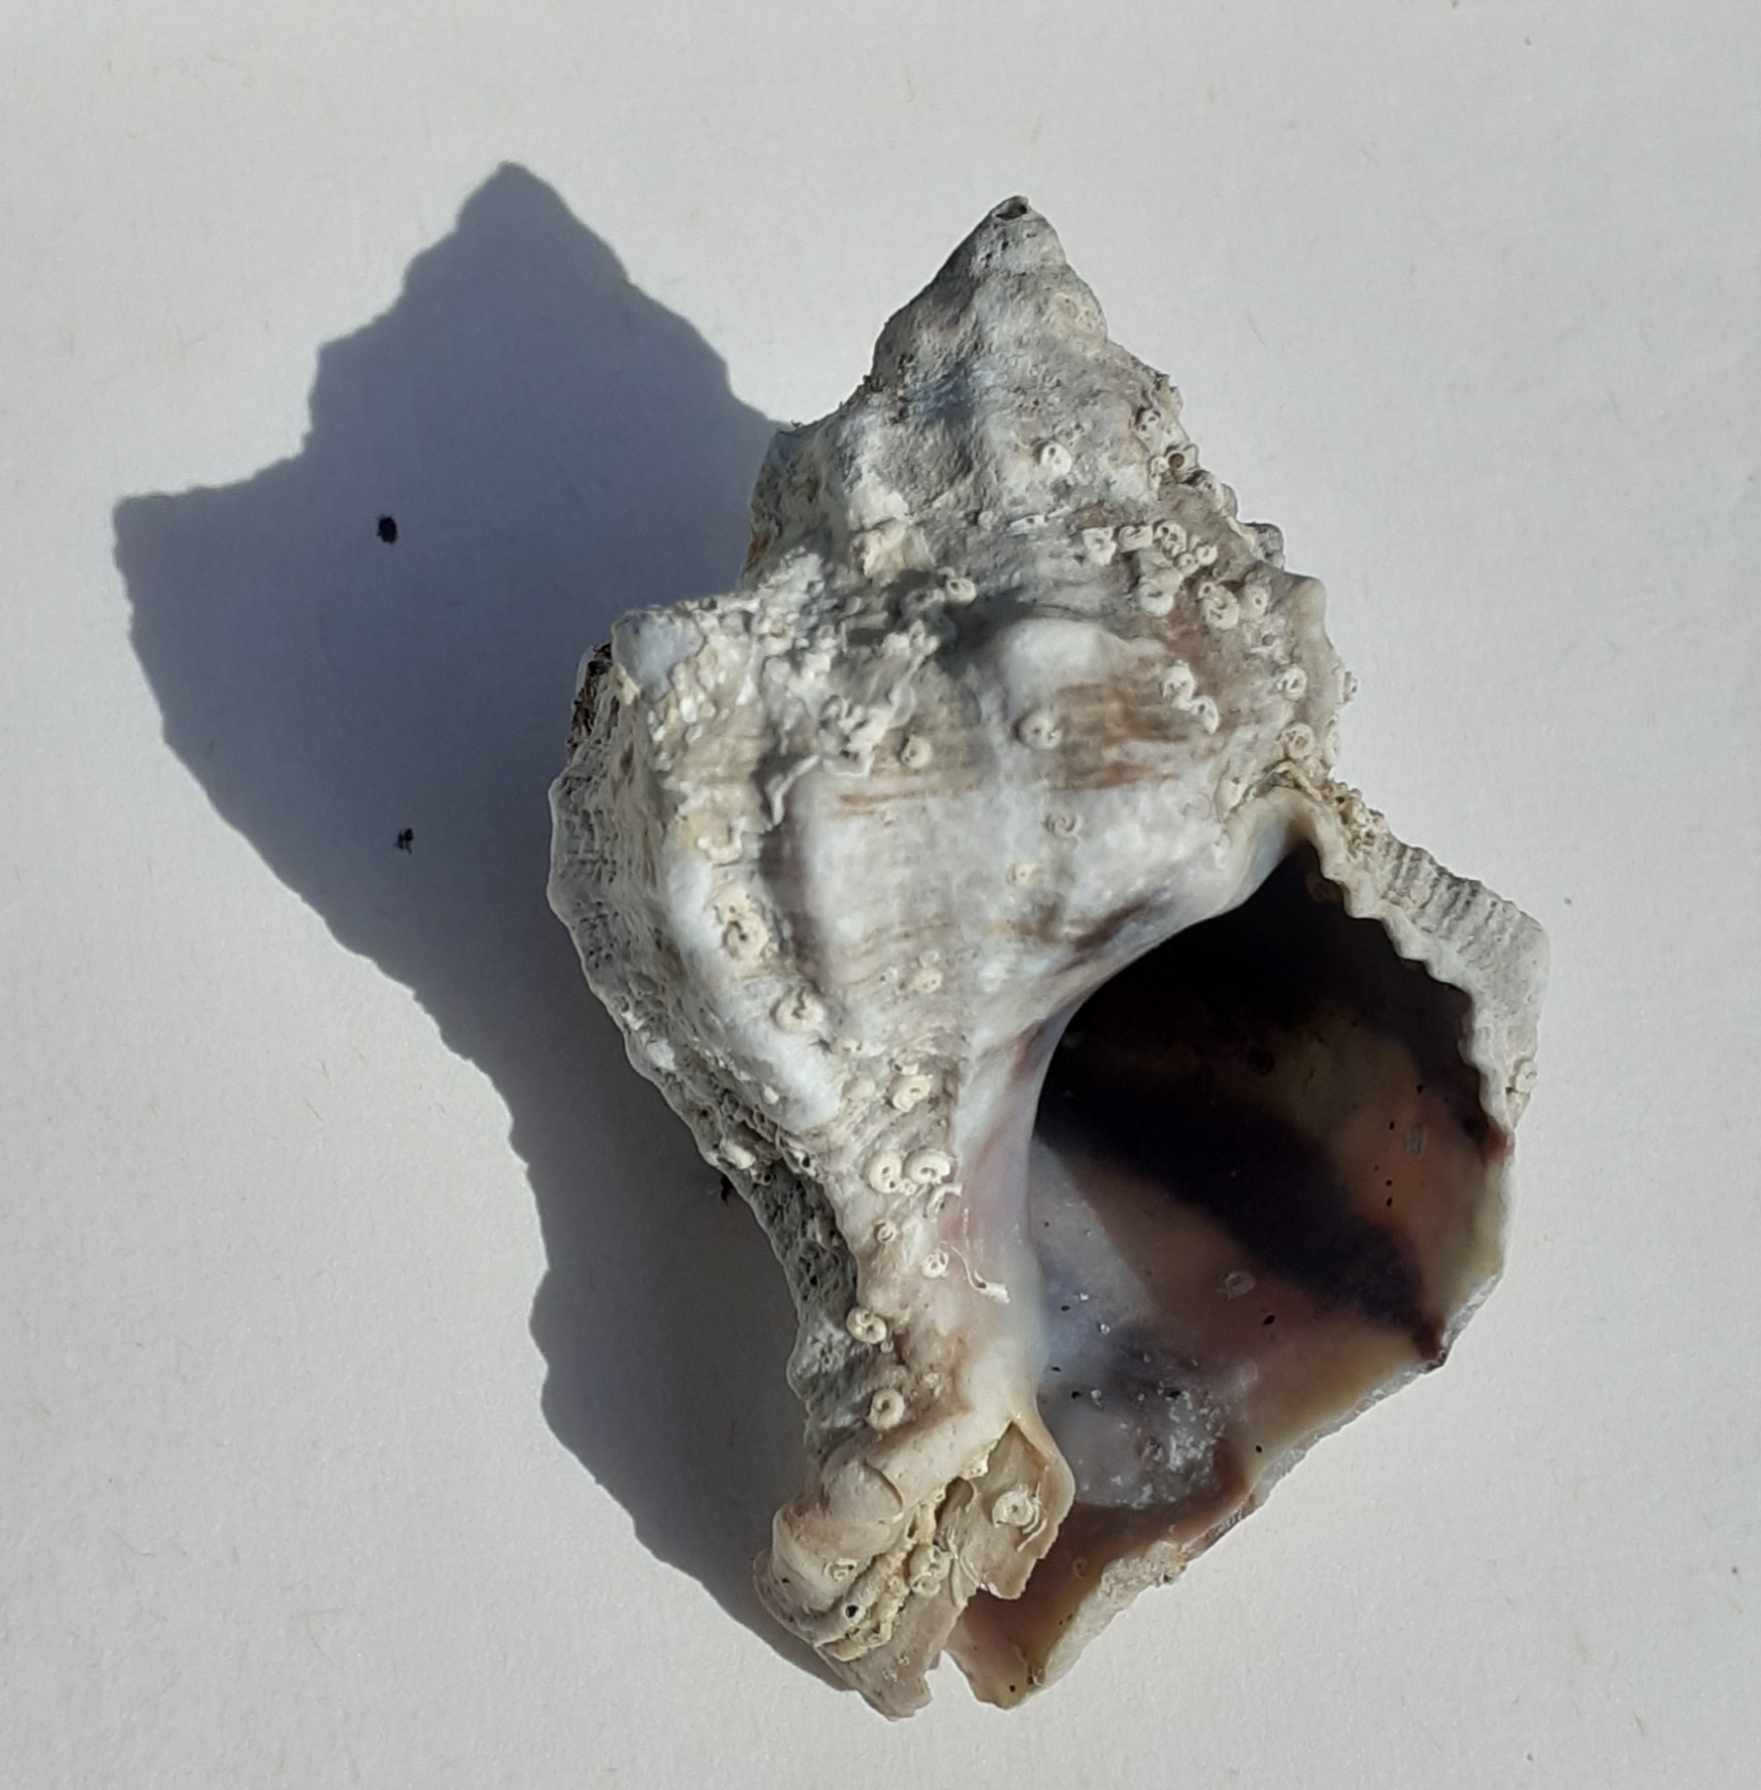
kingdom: Animalia
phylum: Mollusca
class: Gastropoda
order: Neogastropoda
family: Muricidae
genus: Hexaplex
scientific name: Hexaplex trunculus
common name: Banded dye-murex
